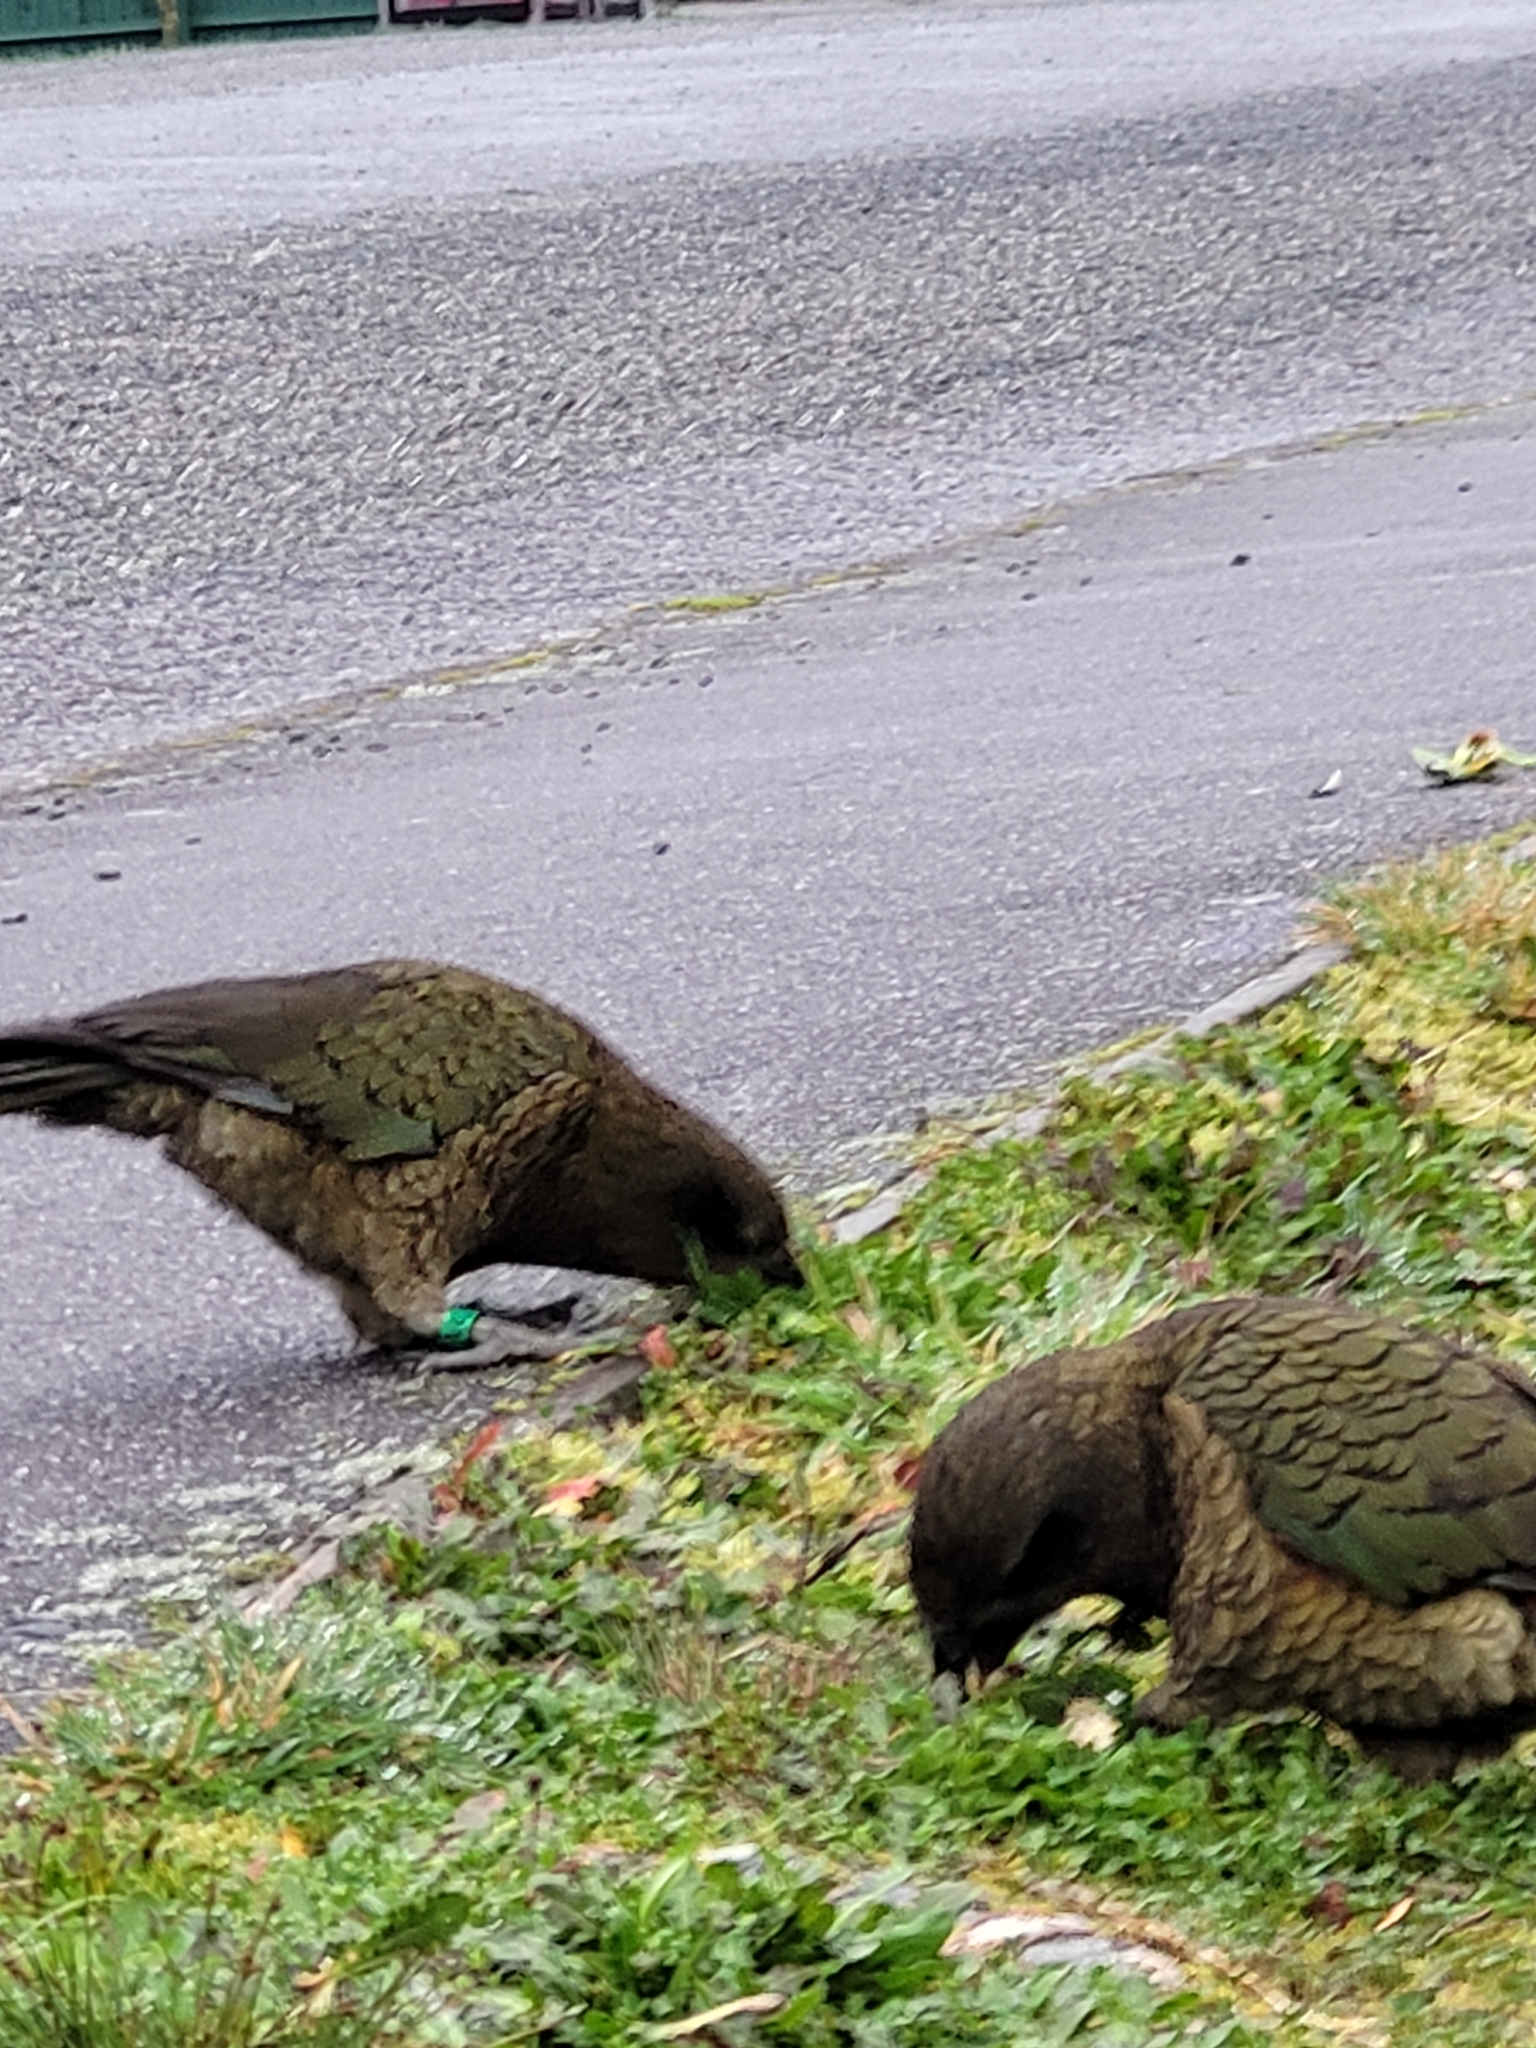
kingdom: Animalia
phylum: Chordata
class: Aves
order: Psittaciformes
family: Psittacidae
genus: Nestor
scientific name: Nestor notabilis
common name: Kea
